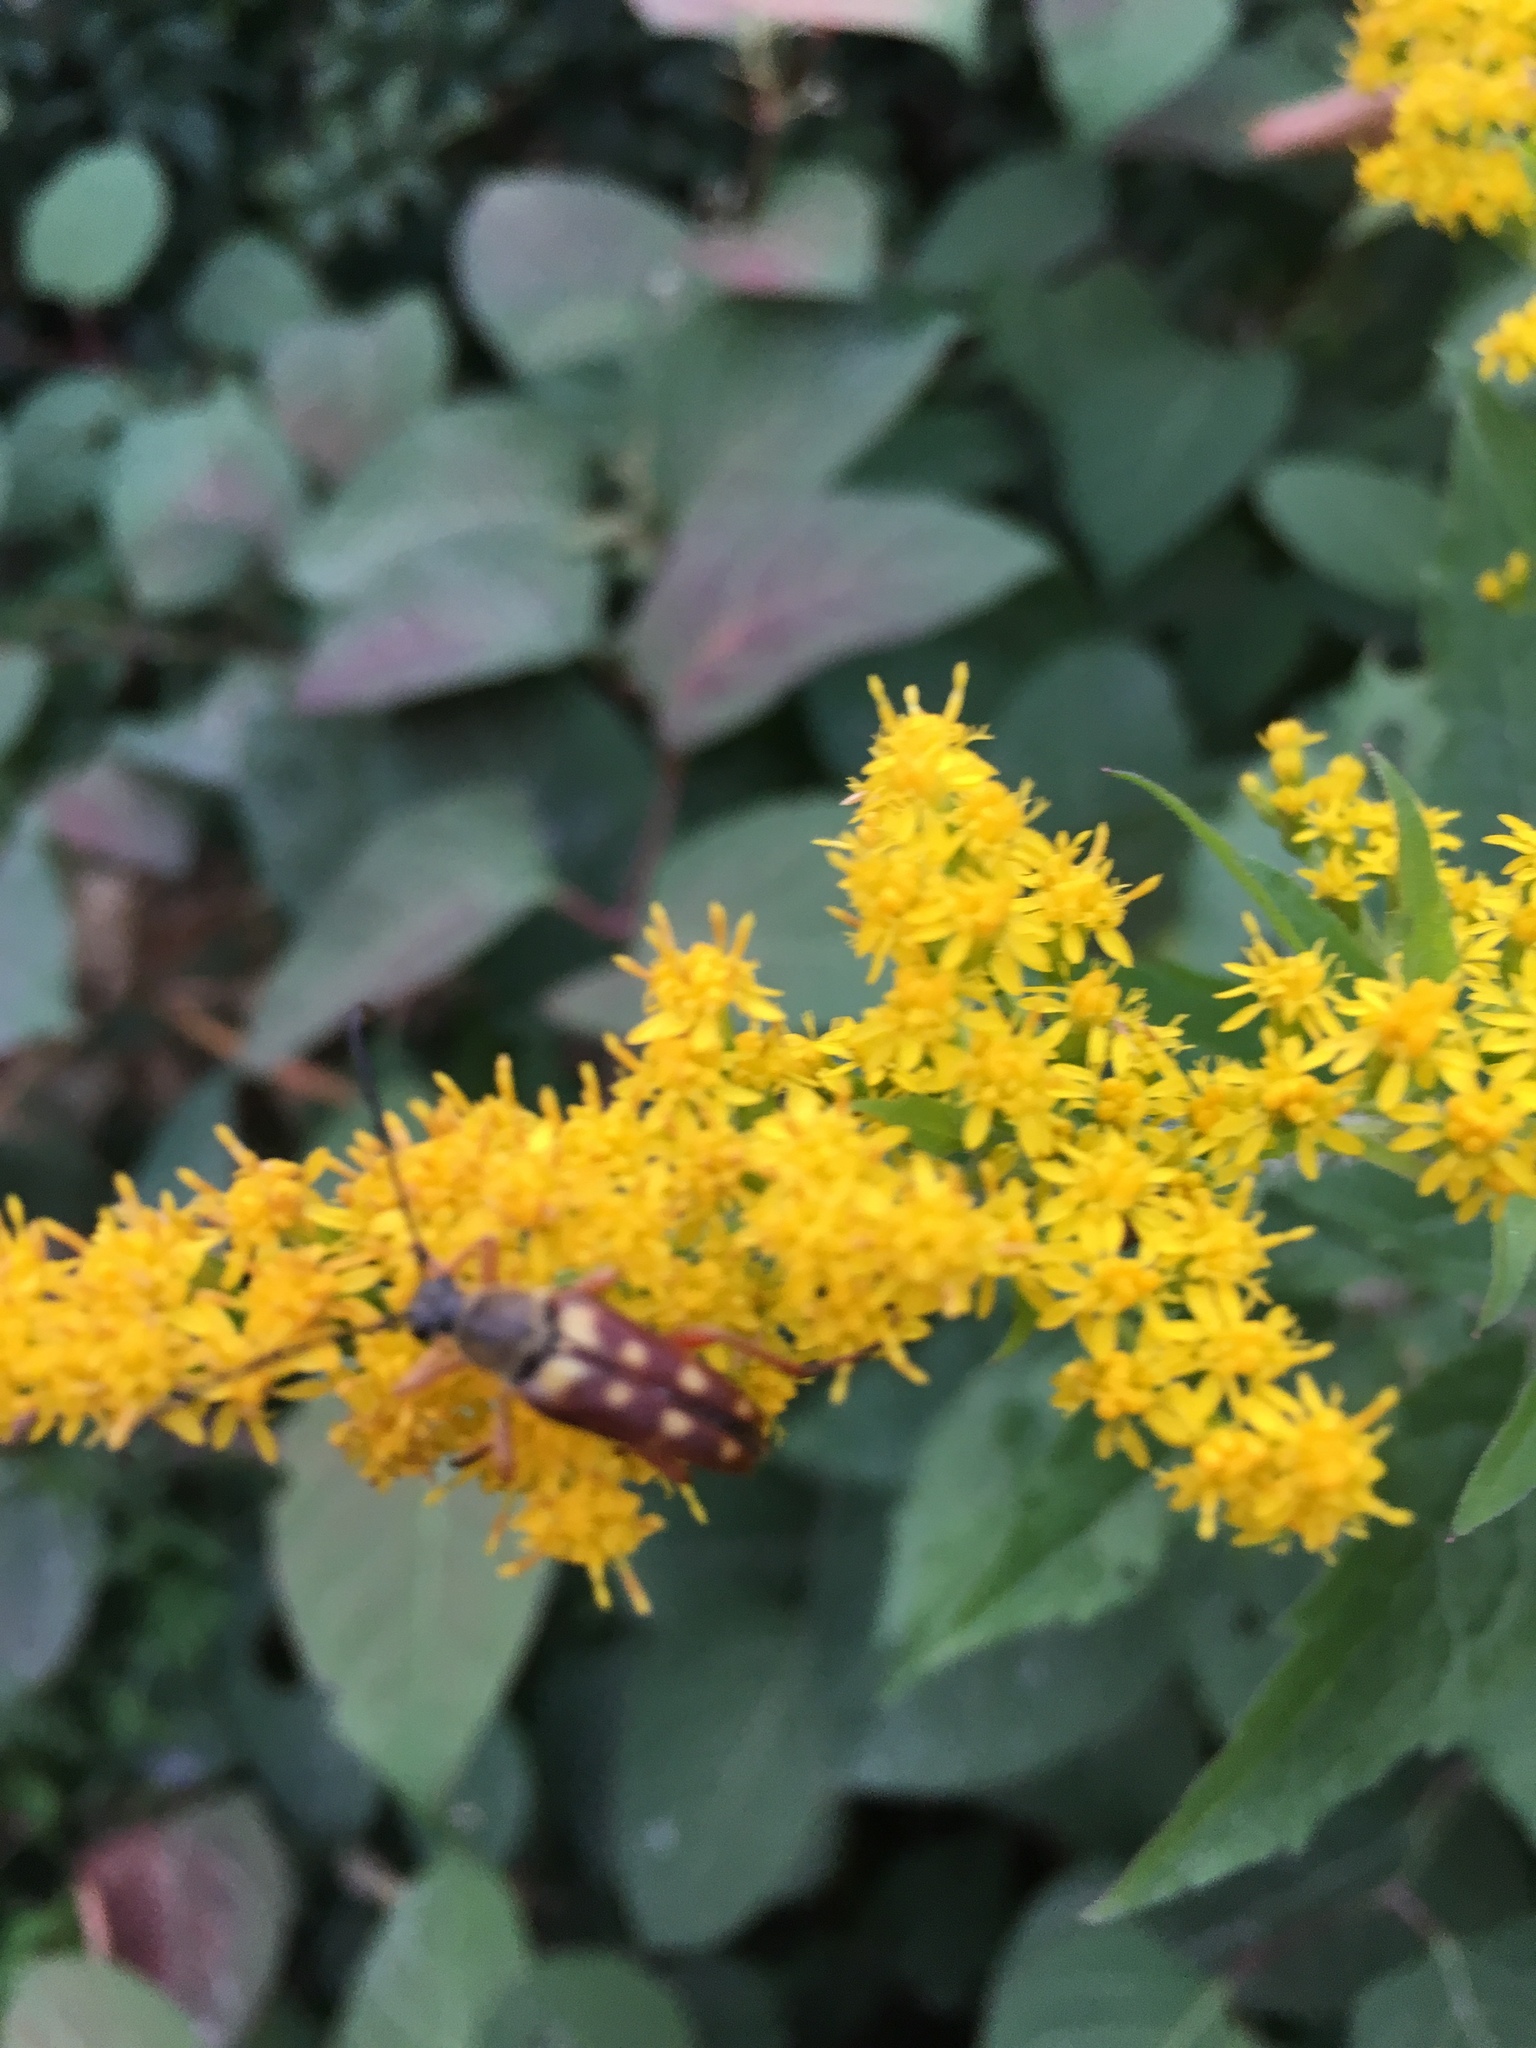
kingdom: Animalia
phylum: Arthropoda
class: Insecta
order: Coleoptera
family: Cerambycidae
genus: Typocerus
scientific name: Typocerus velutinus
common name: Banded longhorn beetle
